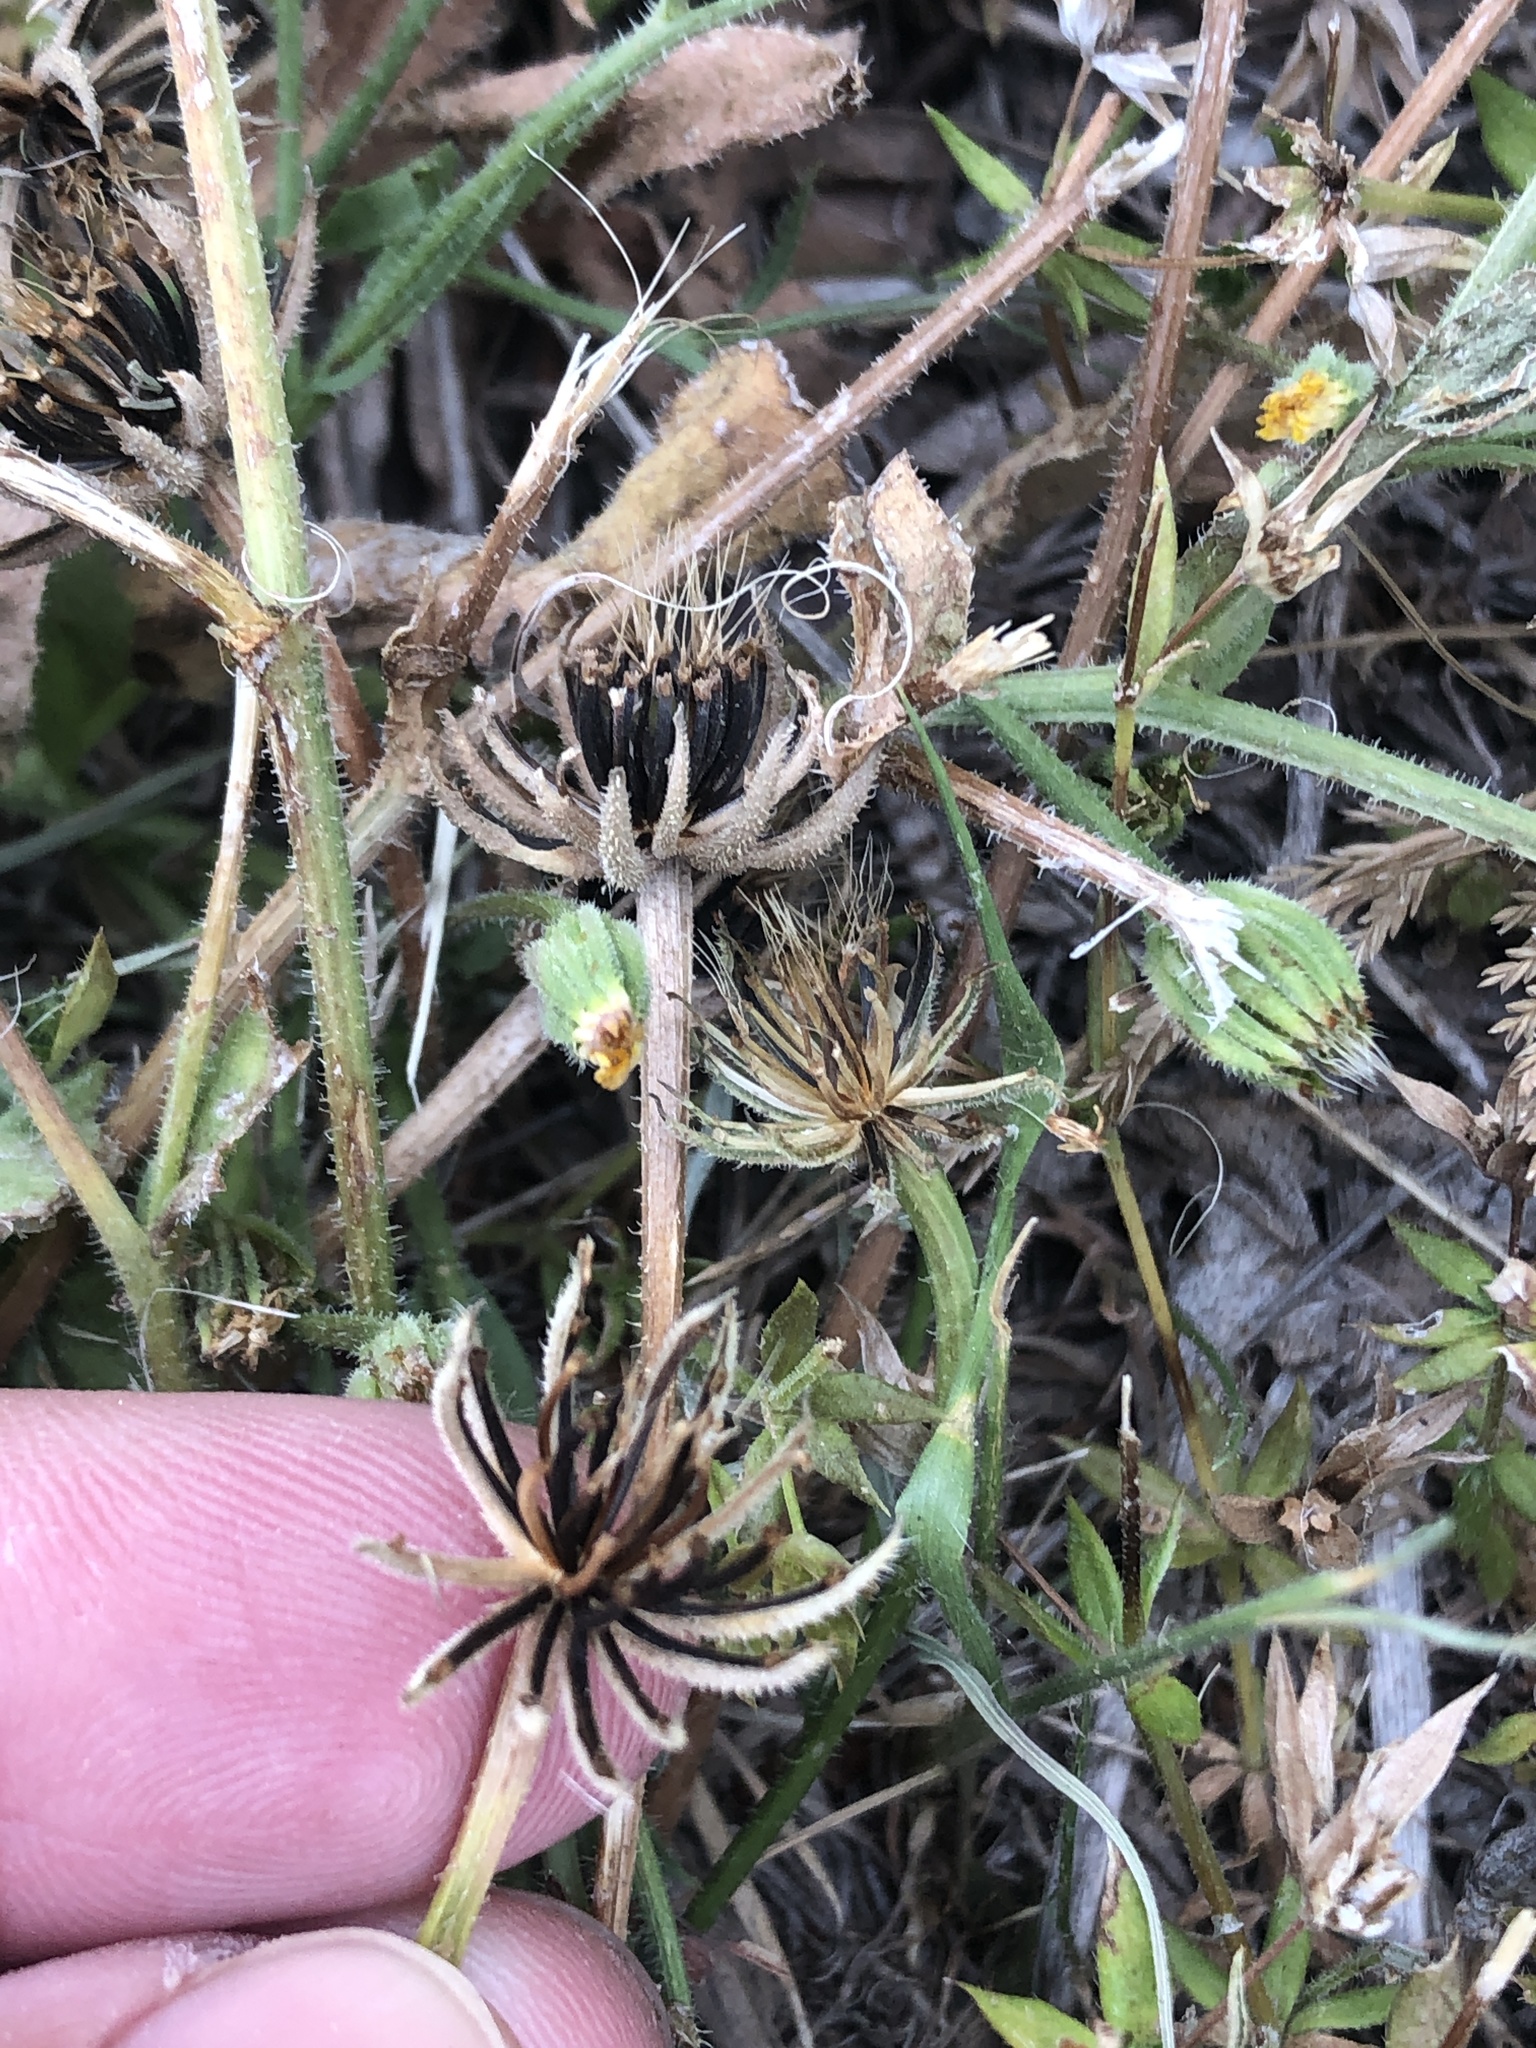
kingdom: Plantae
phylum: Tracheophyta
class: Magnoliopsida
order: Asterales
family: Asteraceae
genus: Hedypnois
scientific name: Hedypnois rhagadioloides
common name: Cretan weed
